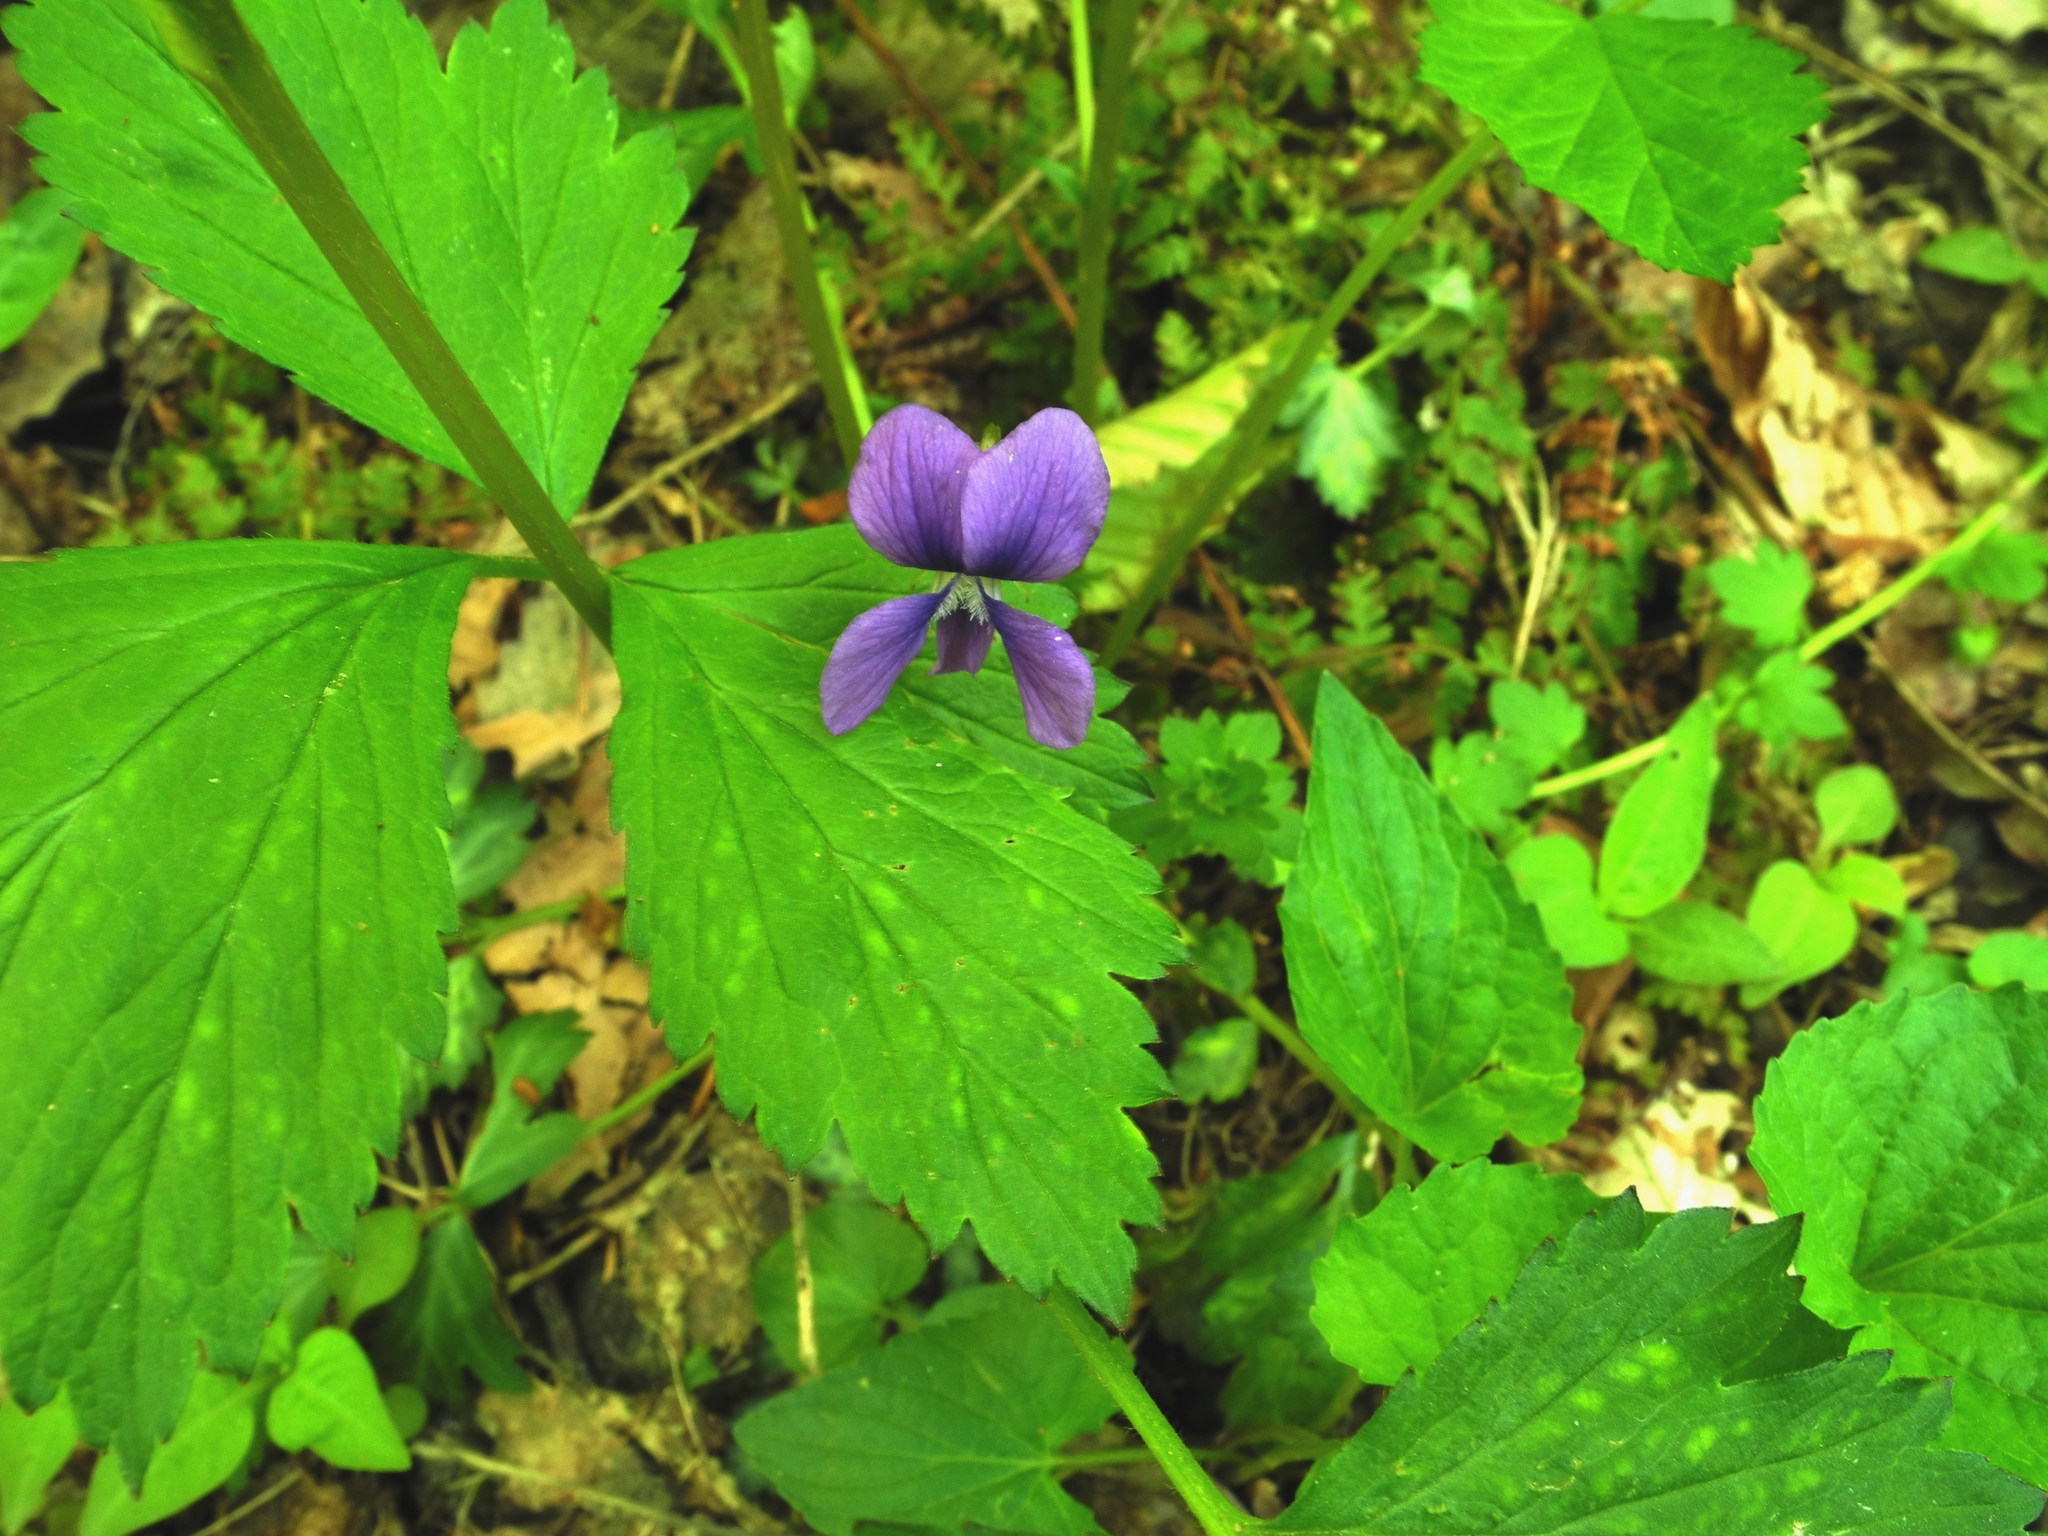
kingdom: Plantae
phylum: Tracheophyta
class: Magnoliopsida
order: Malpighiales
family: Violaceae
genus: Viola
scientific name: Viola affinis
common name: Leconte's violet
